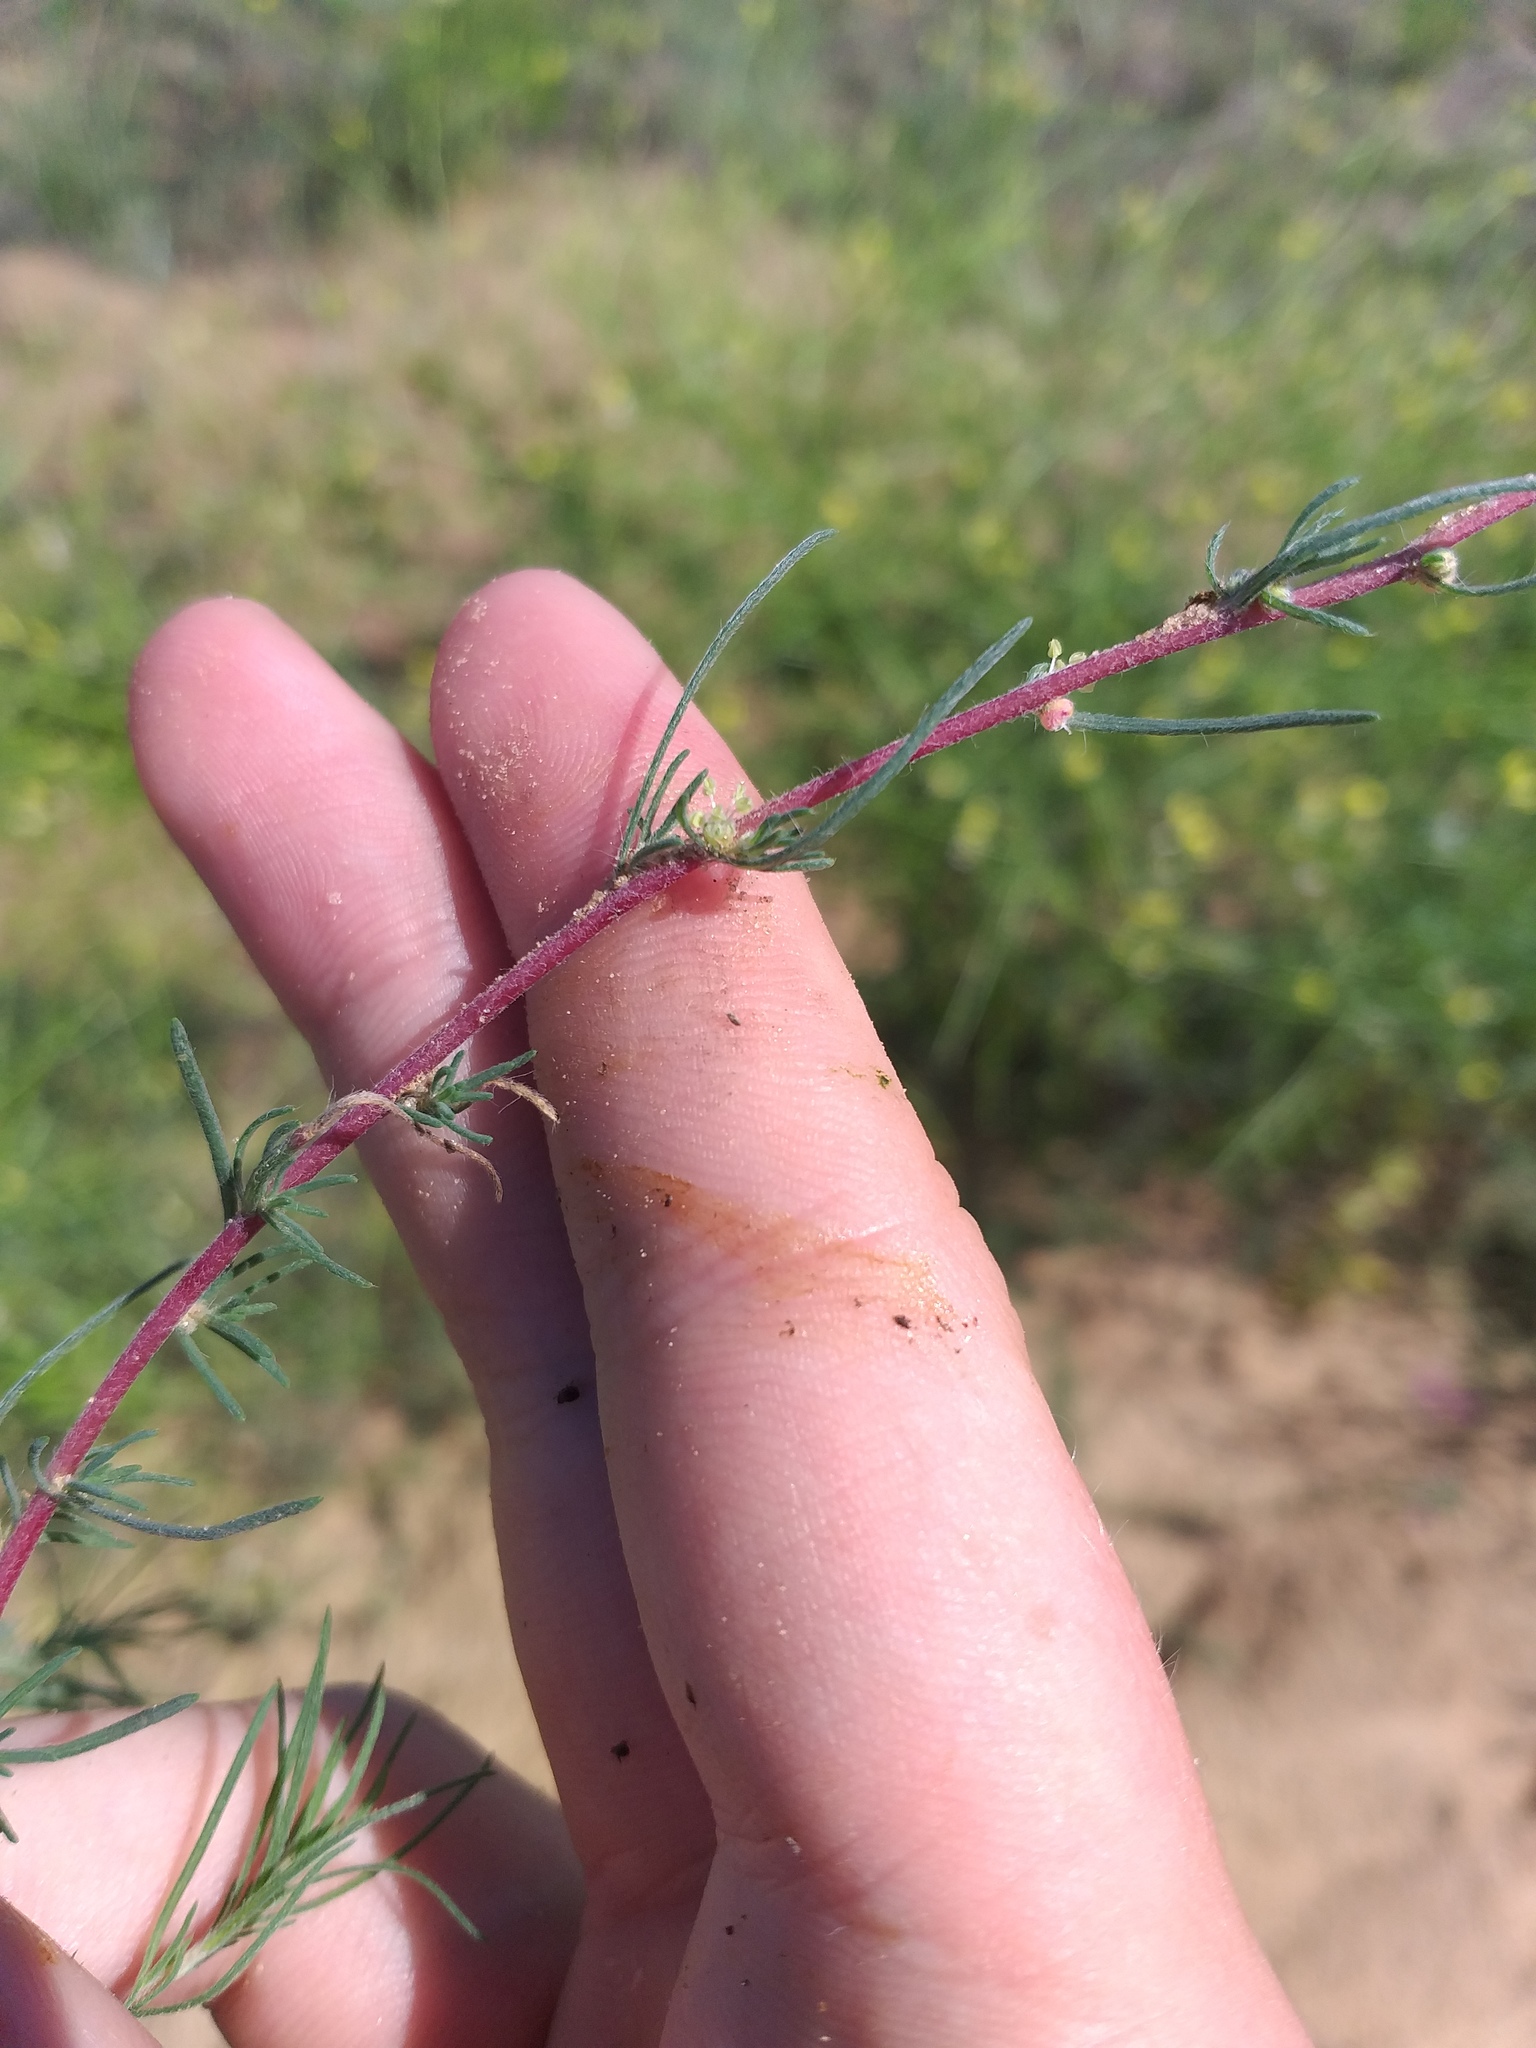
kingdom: Plantae
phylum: Tracheophyta
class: Magnoliopsida
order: Caryophyllales
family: Amaranthaceae
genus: Bassia
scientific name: Bassia laniflora
